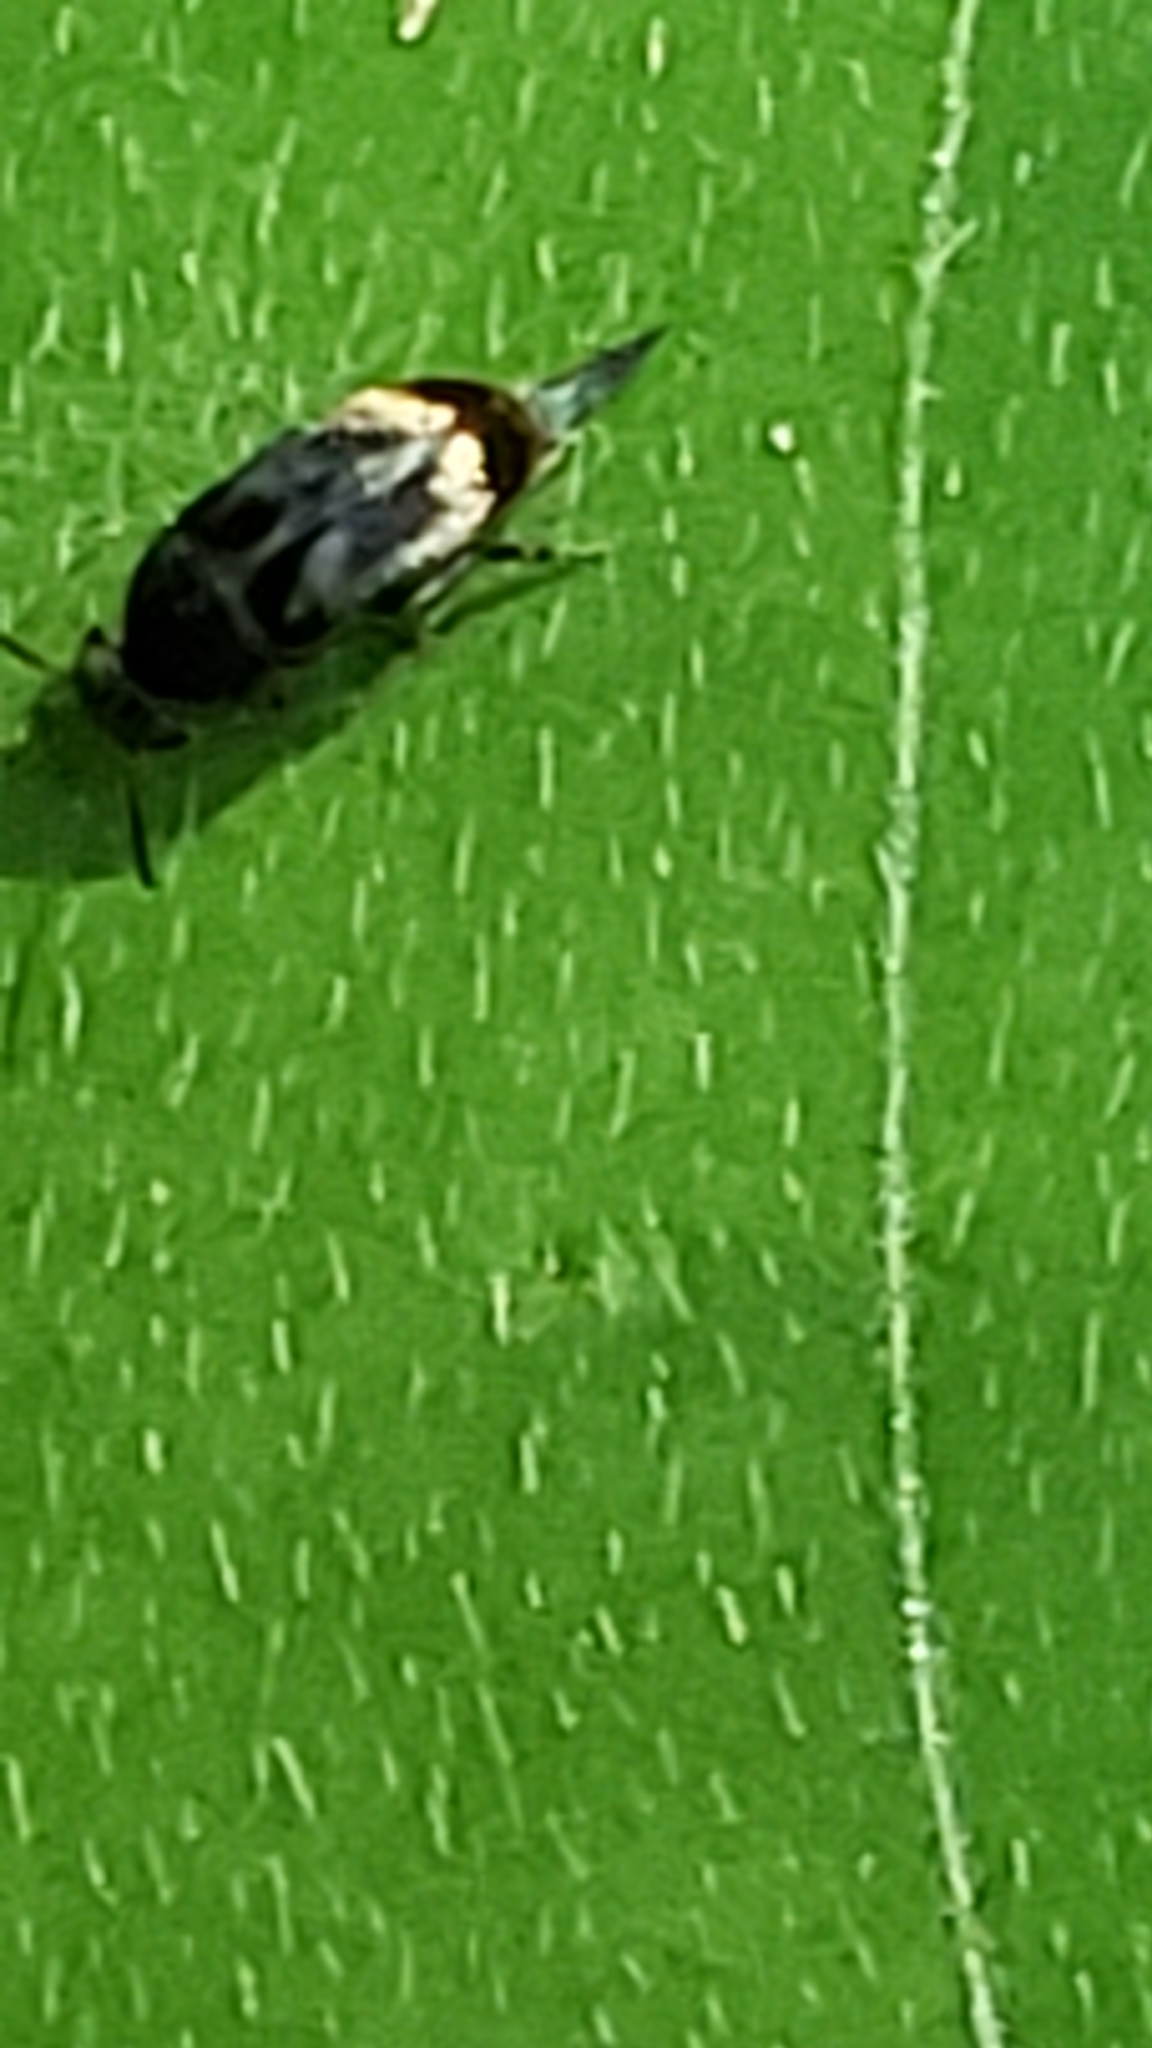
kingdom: Animalia
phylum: Arthropoda
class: Insecta
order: Coleoptera
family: Mordellidae
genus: Falsomordellistena
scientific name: Falsomordellistena hebraica
